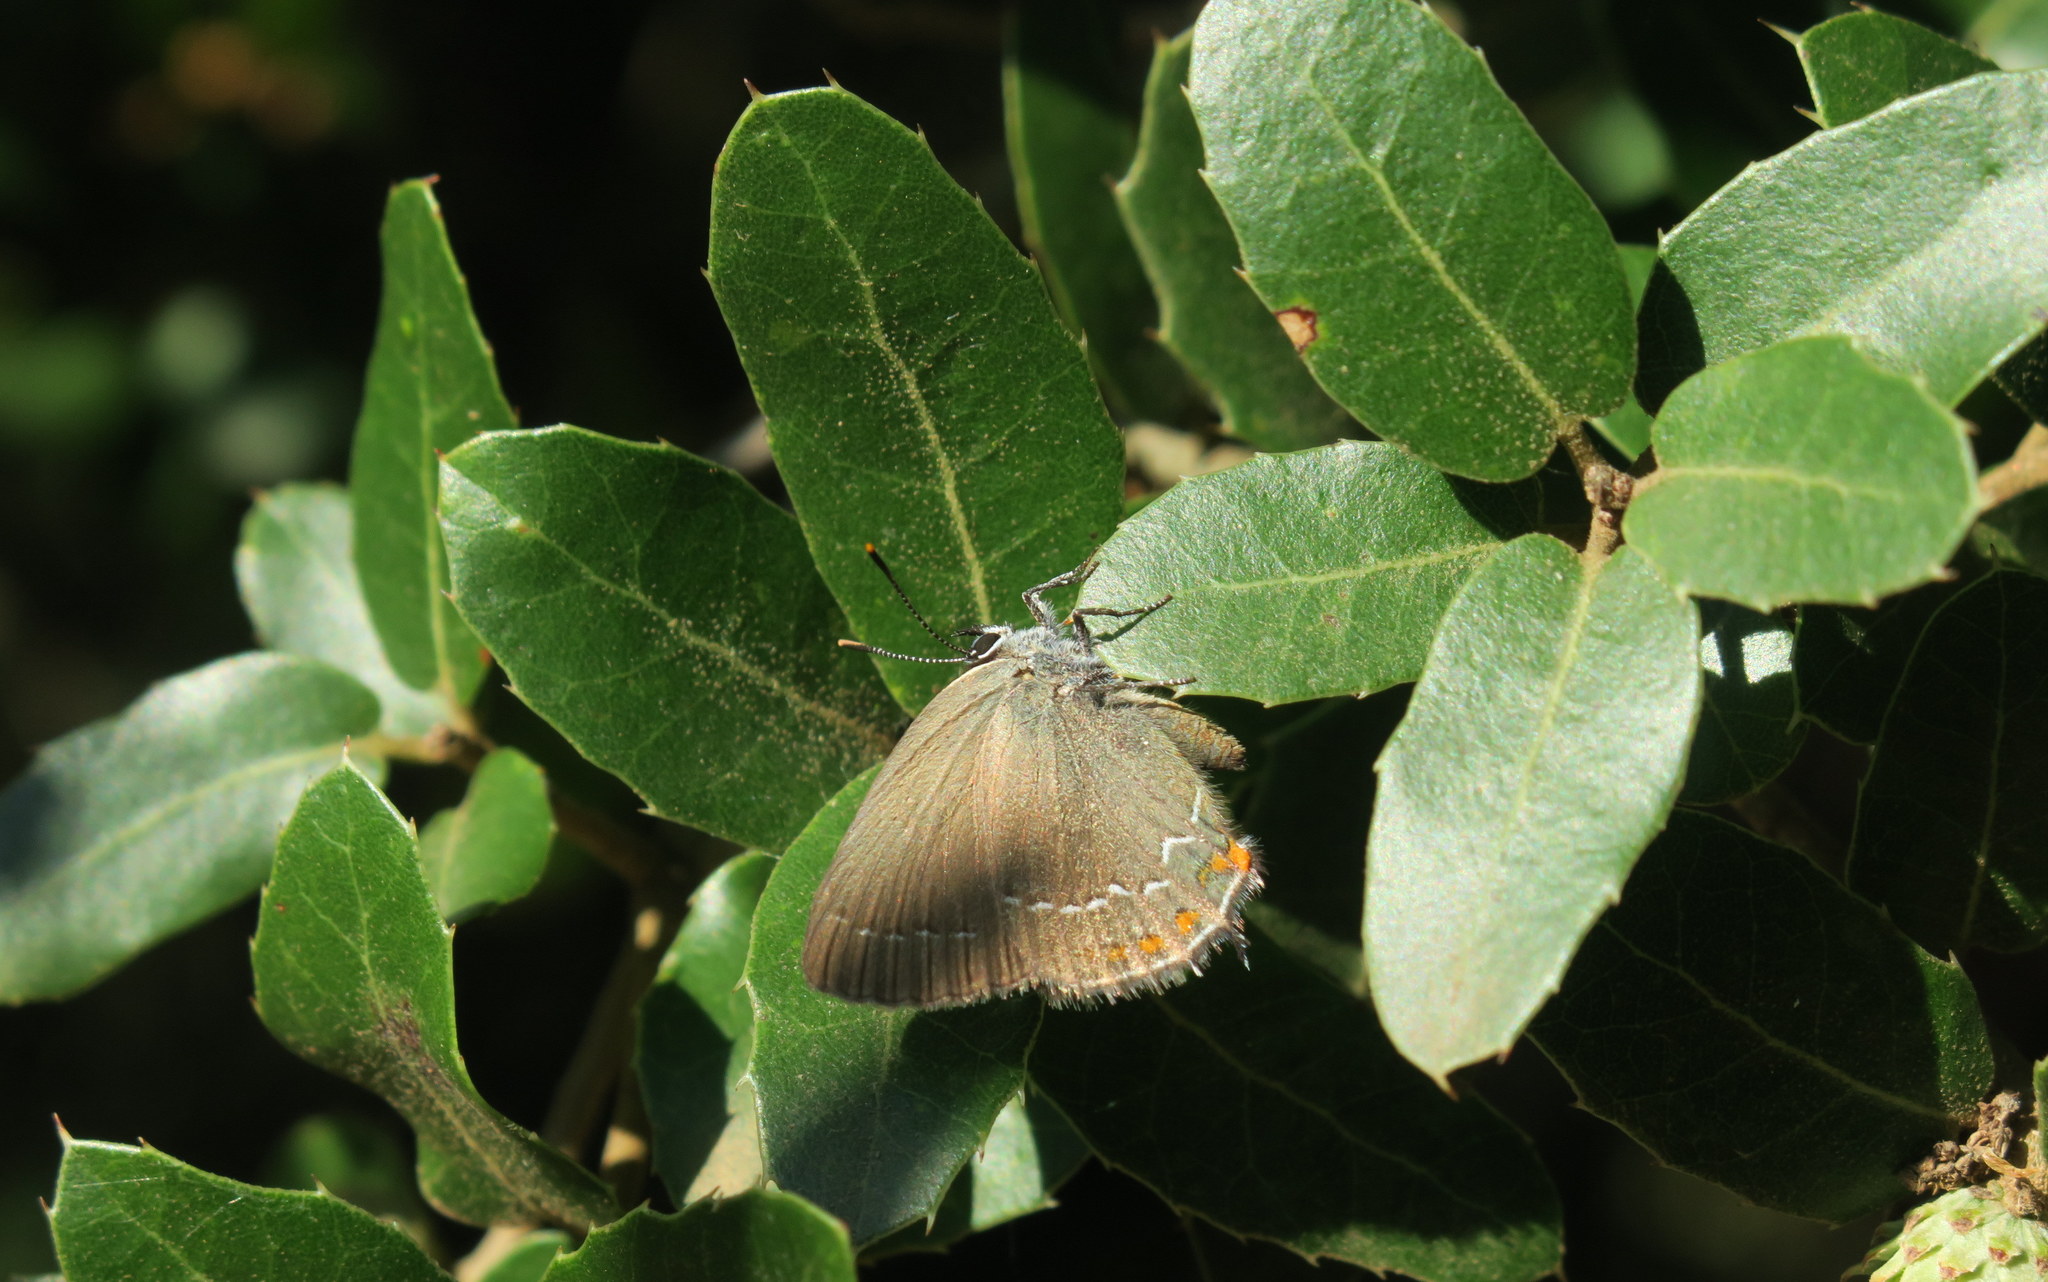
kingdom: Animalia
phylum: Arthropoda
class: Insecta
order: Lepidoptera
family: Lycaenidae
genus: Nordmannia
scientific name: Nordmannia ilicis
